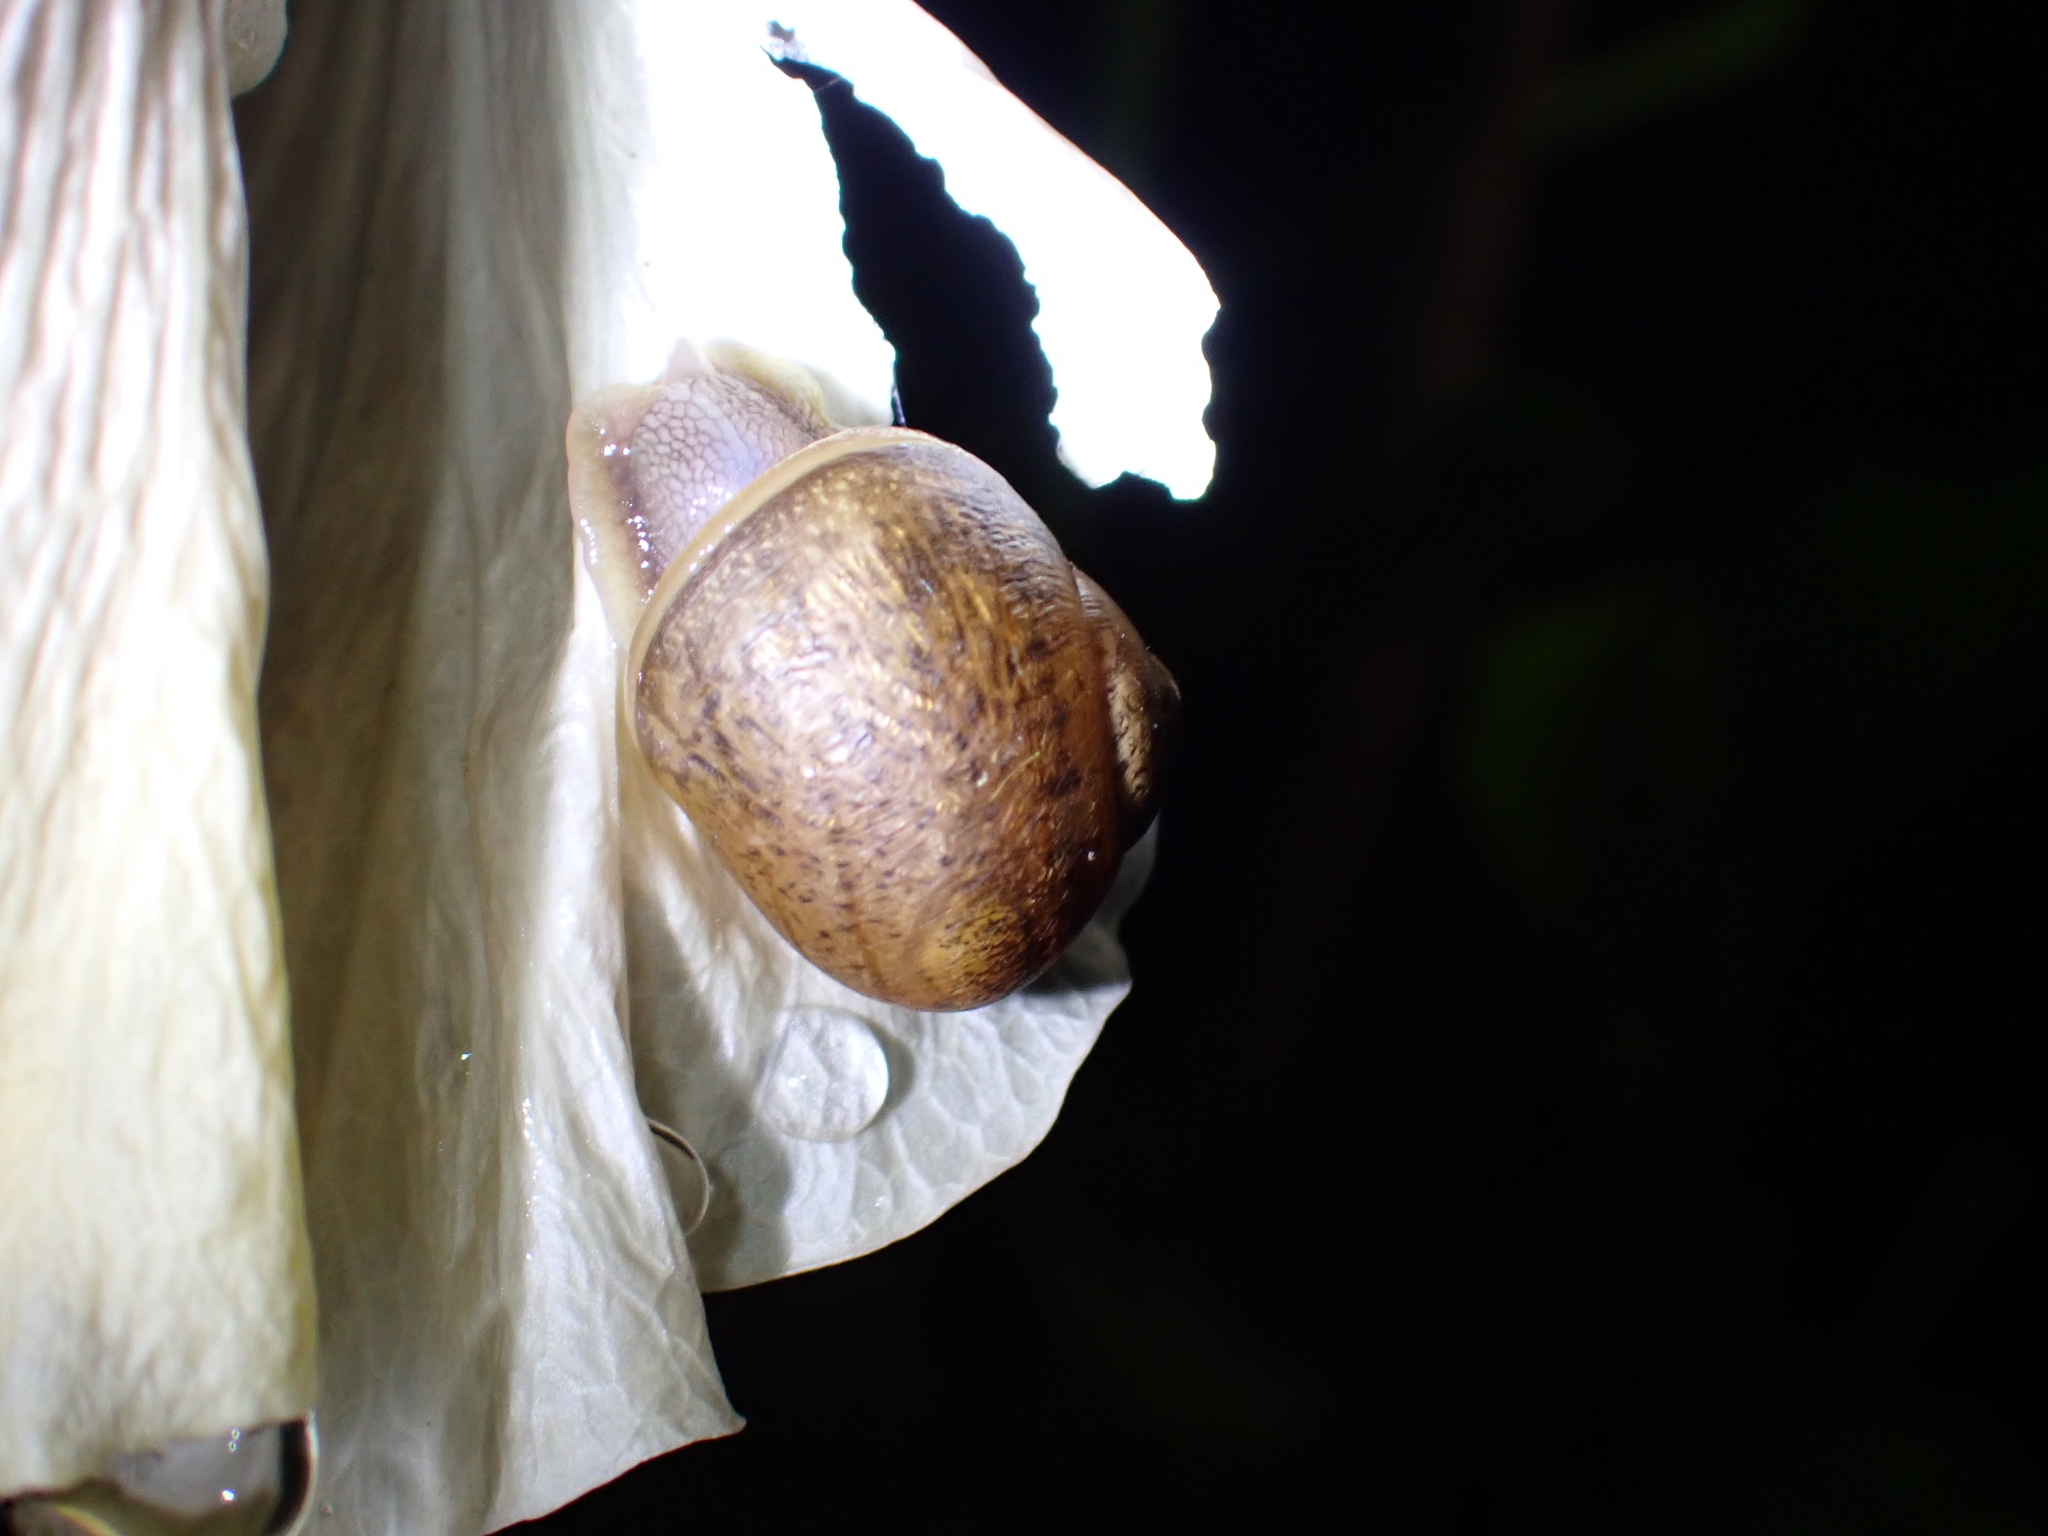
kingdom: Animalia
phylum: Mollusca
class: Gastropoda
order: Stylommatophora
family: Helicidae
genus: Cornu
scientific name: Cornu aspersum
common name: Brown garden snail
